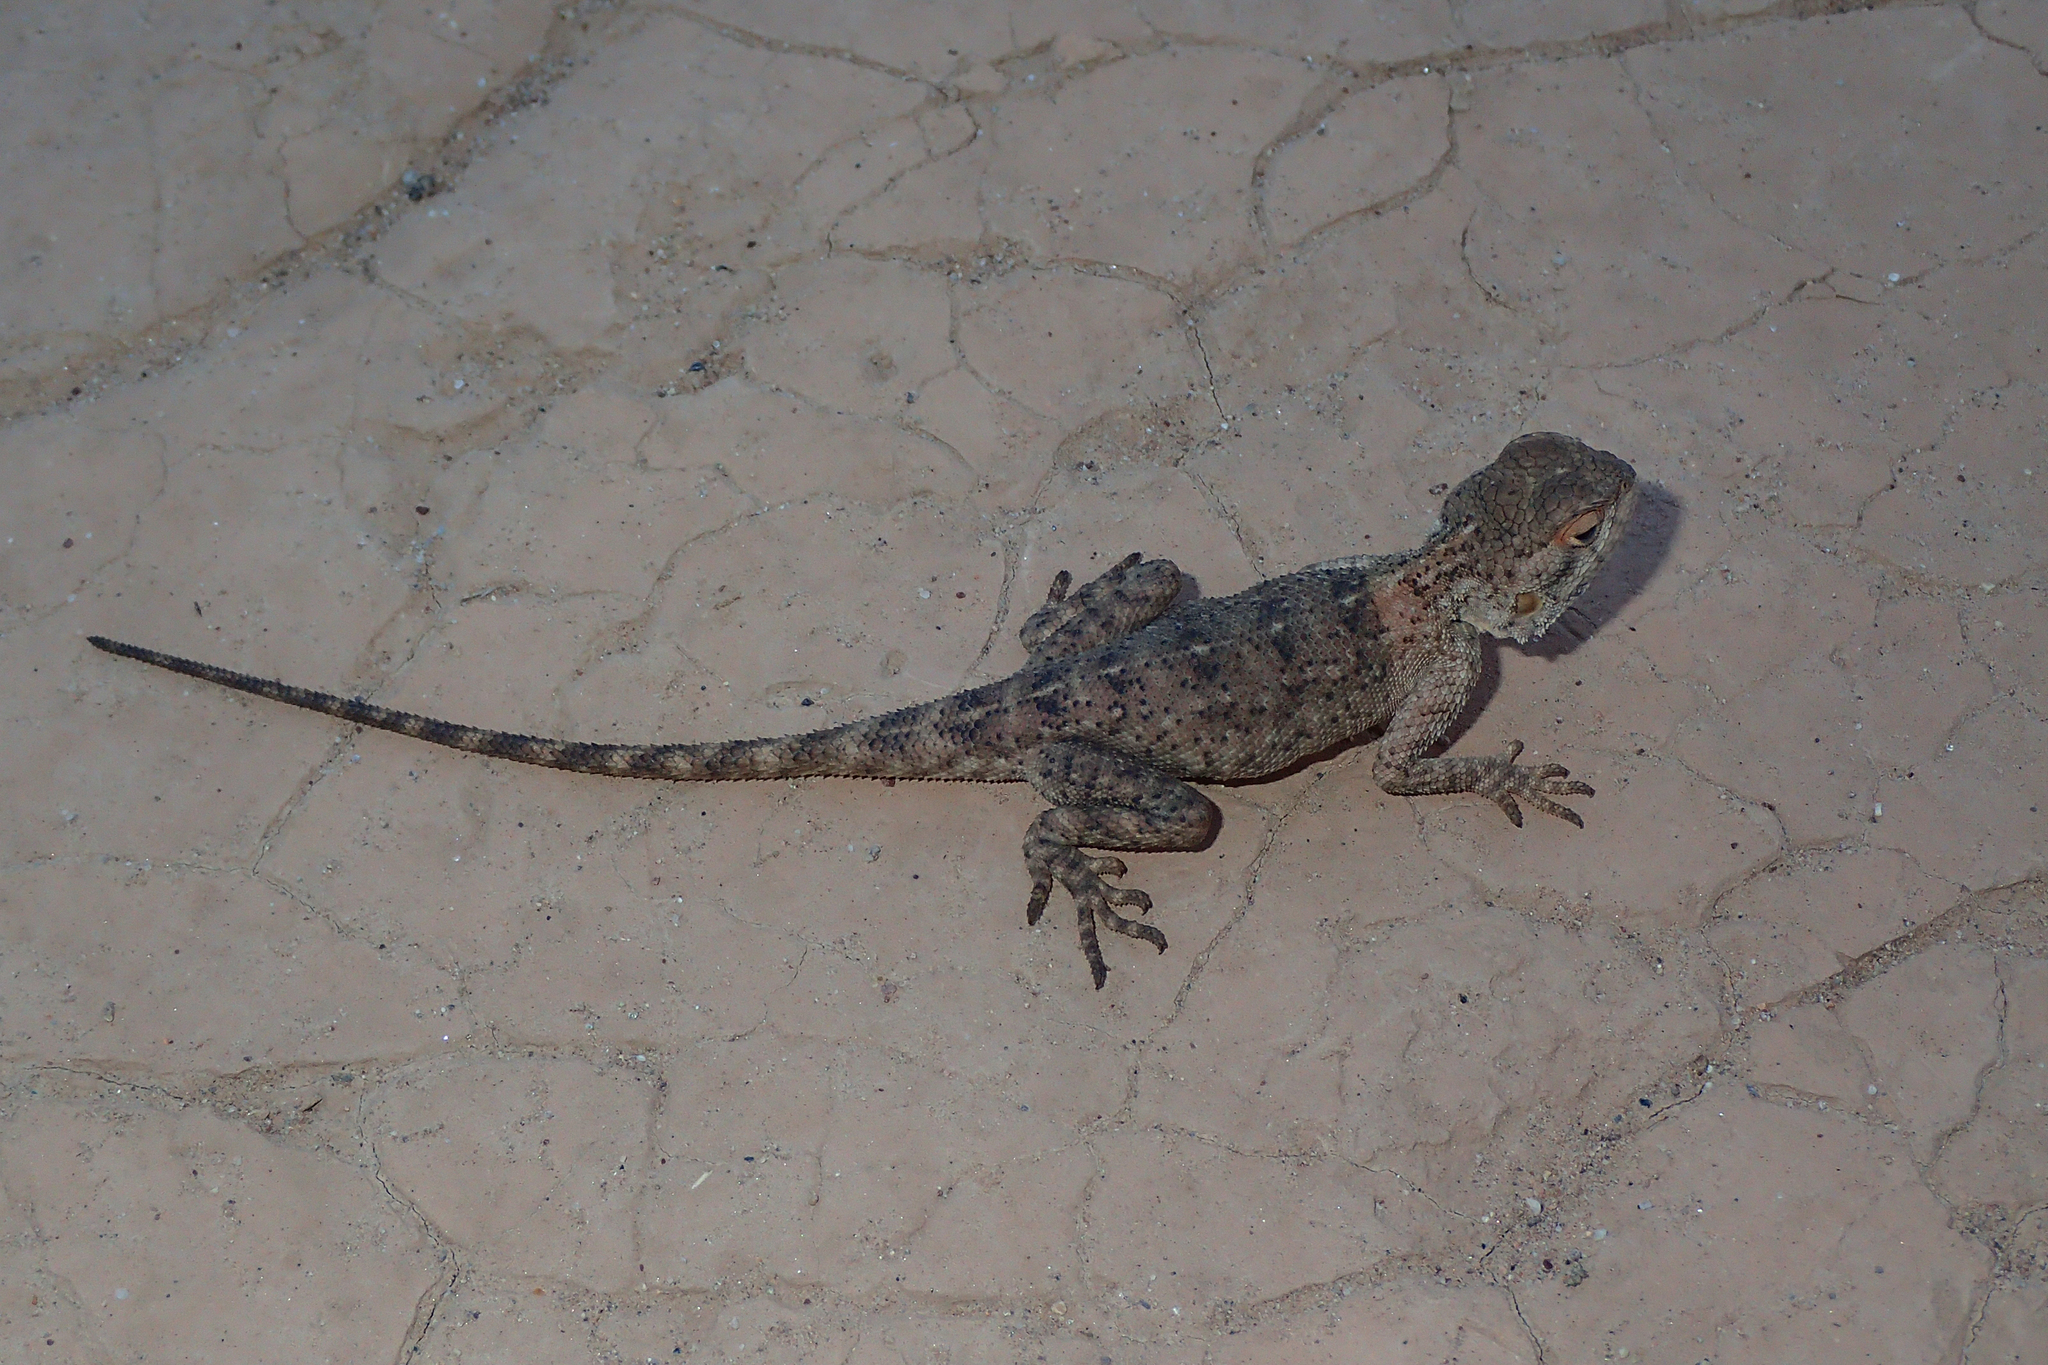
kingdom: Animalia
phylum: Chordata
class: Squamata
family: Agamidae
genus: Agama
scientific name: Agama impalearis
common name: Bibron's agama
